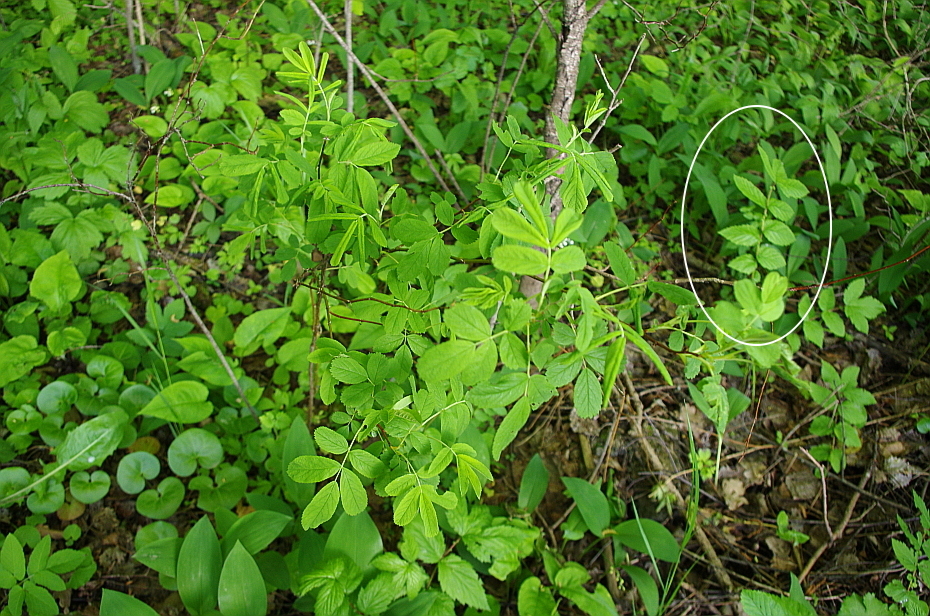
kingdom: Plantae
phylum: Tracheophyta
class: Magnoliopsida
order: Rosales
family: Rosaceae
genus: Filipendula
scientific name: Filipendula ulmaria
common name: Meadowsweet
